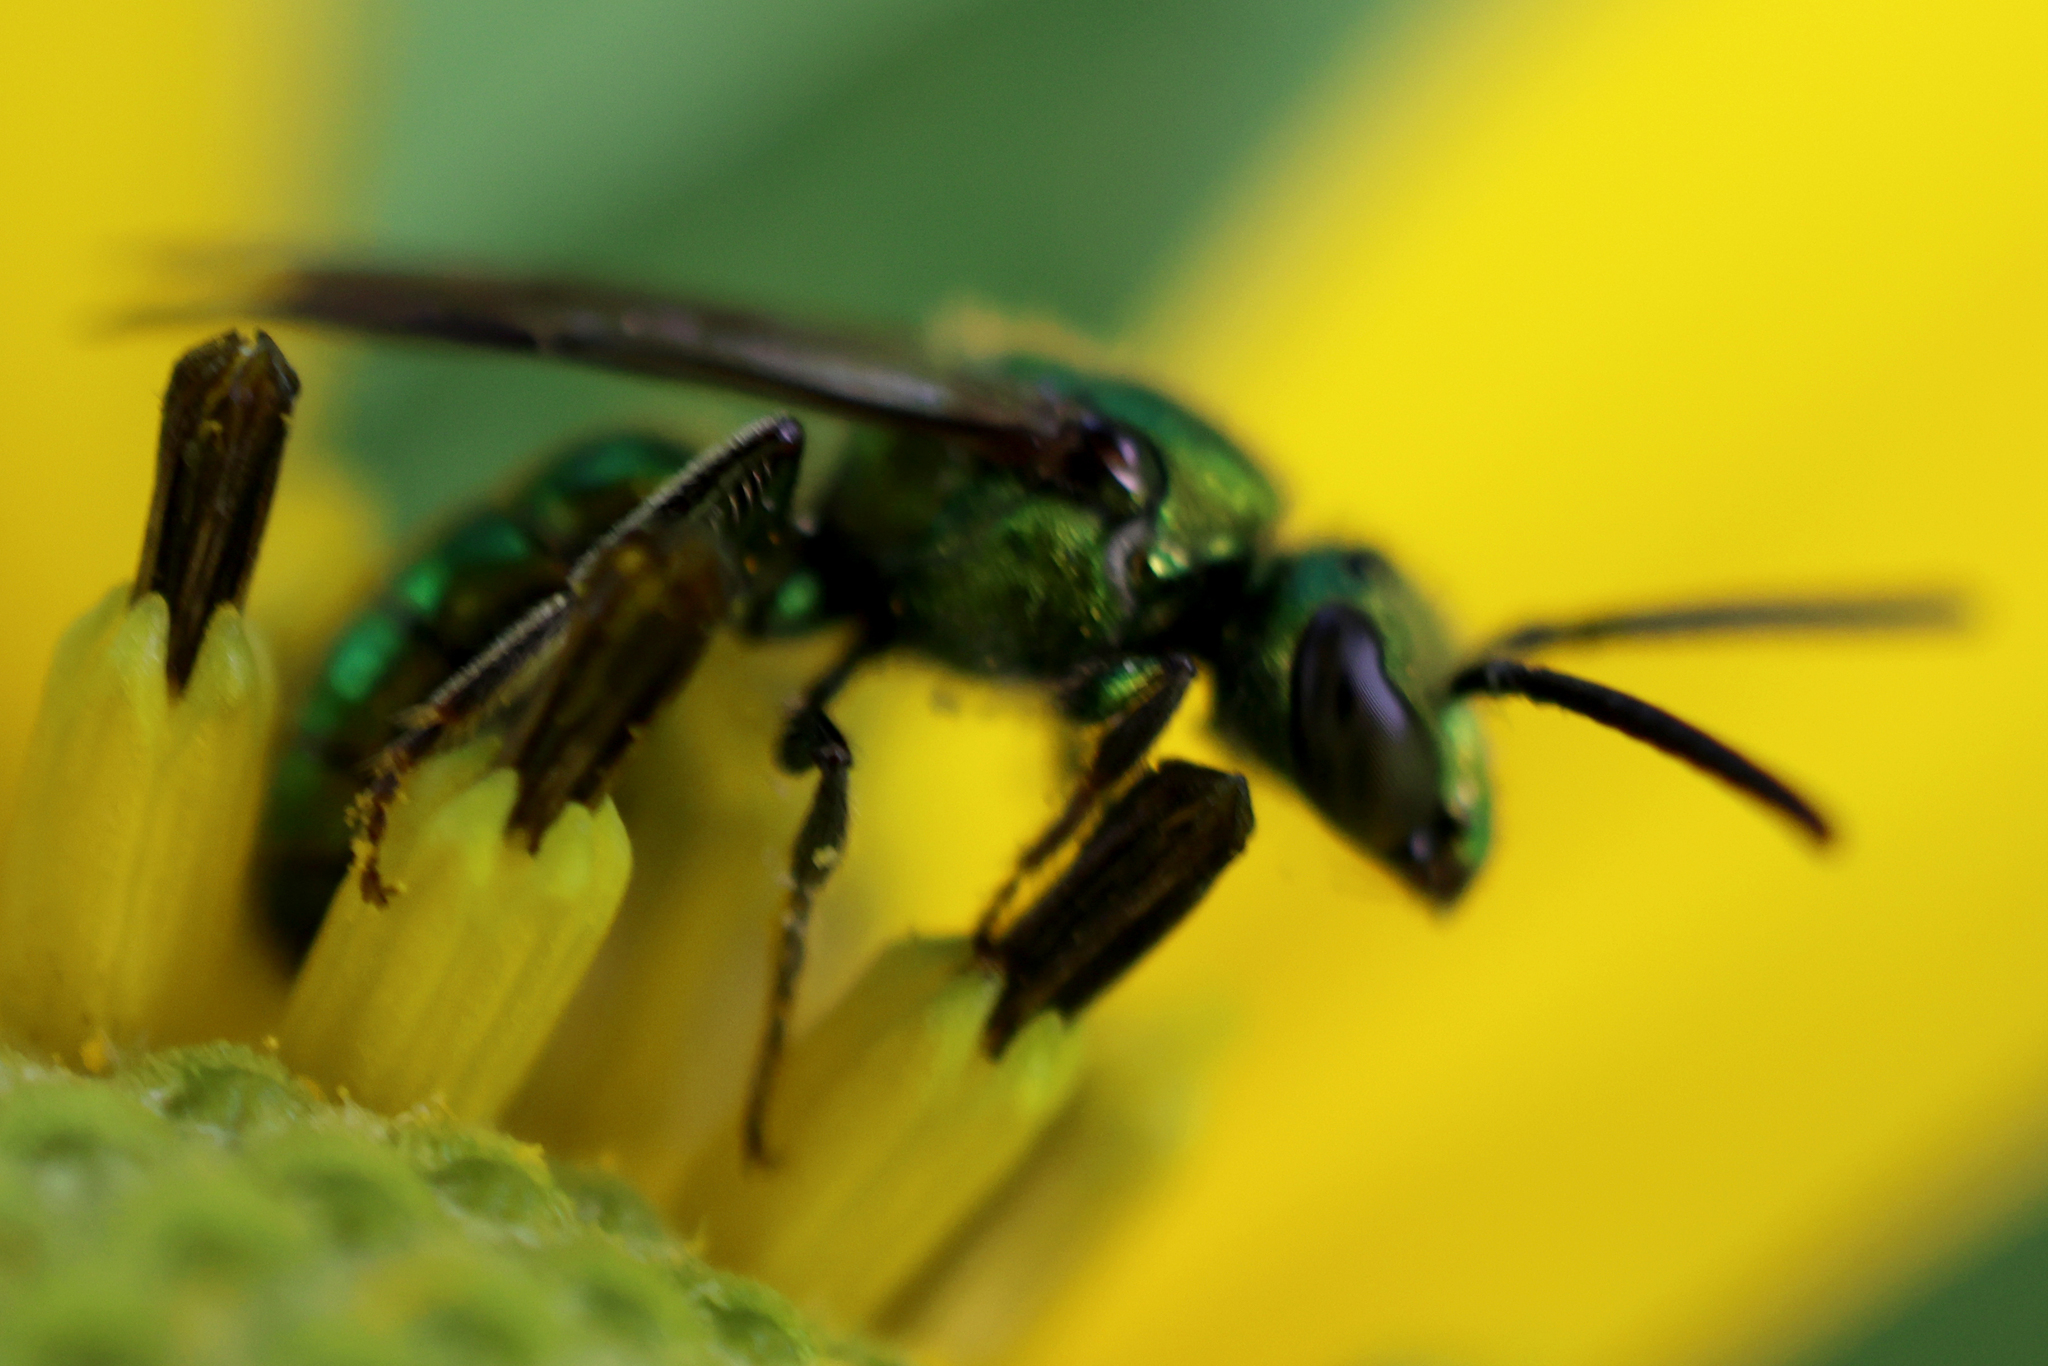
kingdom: Animalia
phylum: Arthropoda
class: Insecta
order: Hymenoptera
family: Halictidae
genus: Augochlora
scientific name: Augochlora pura
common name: Pure green sweat bee
